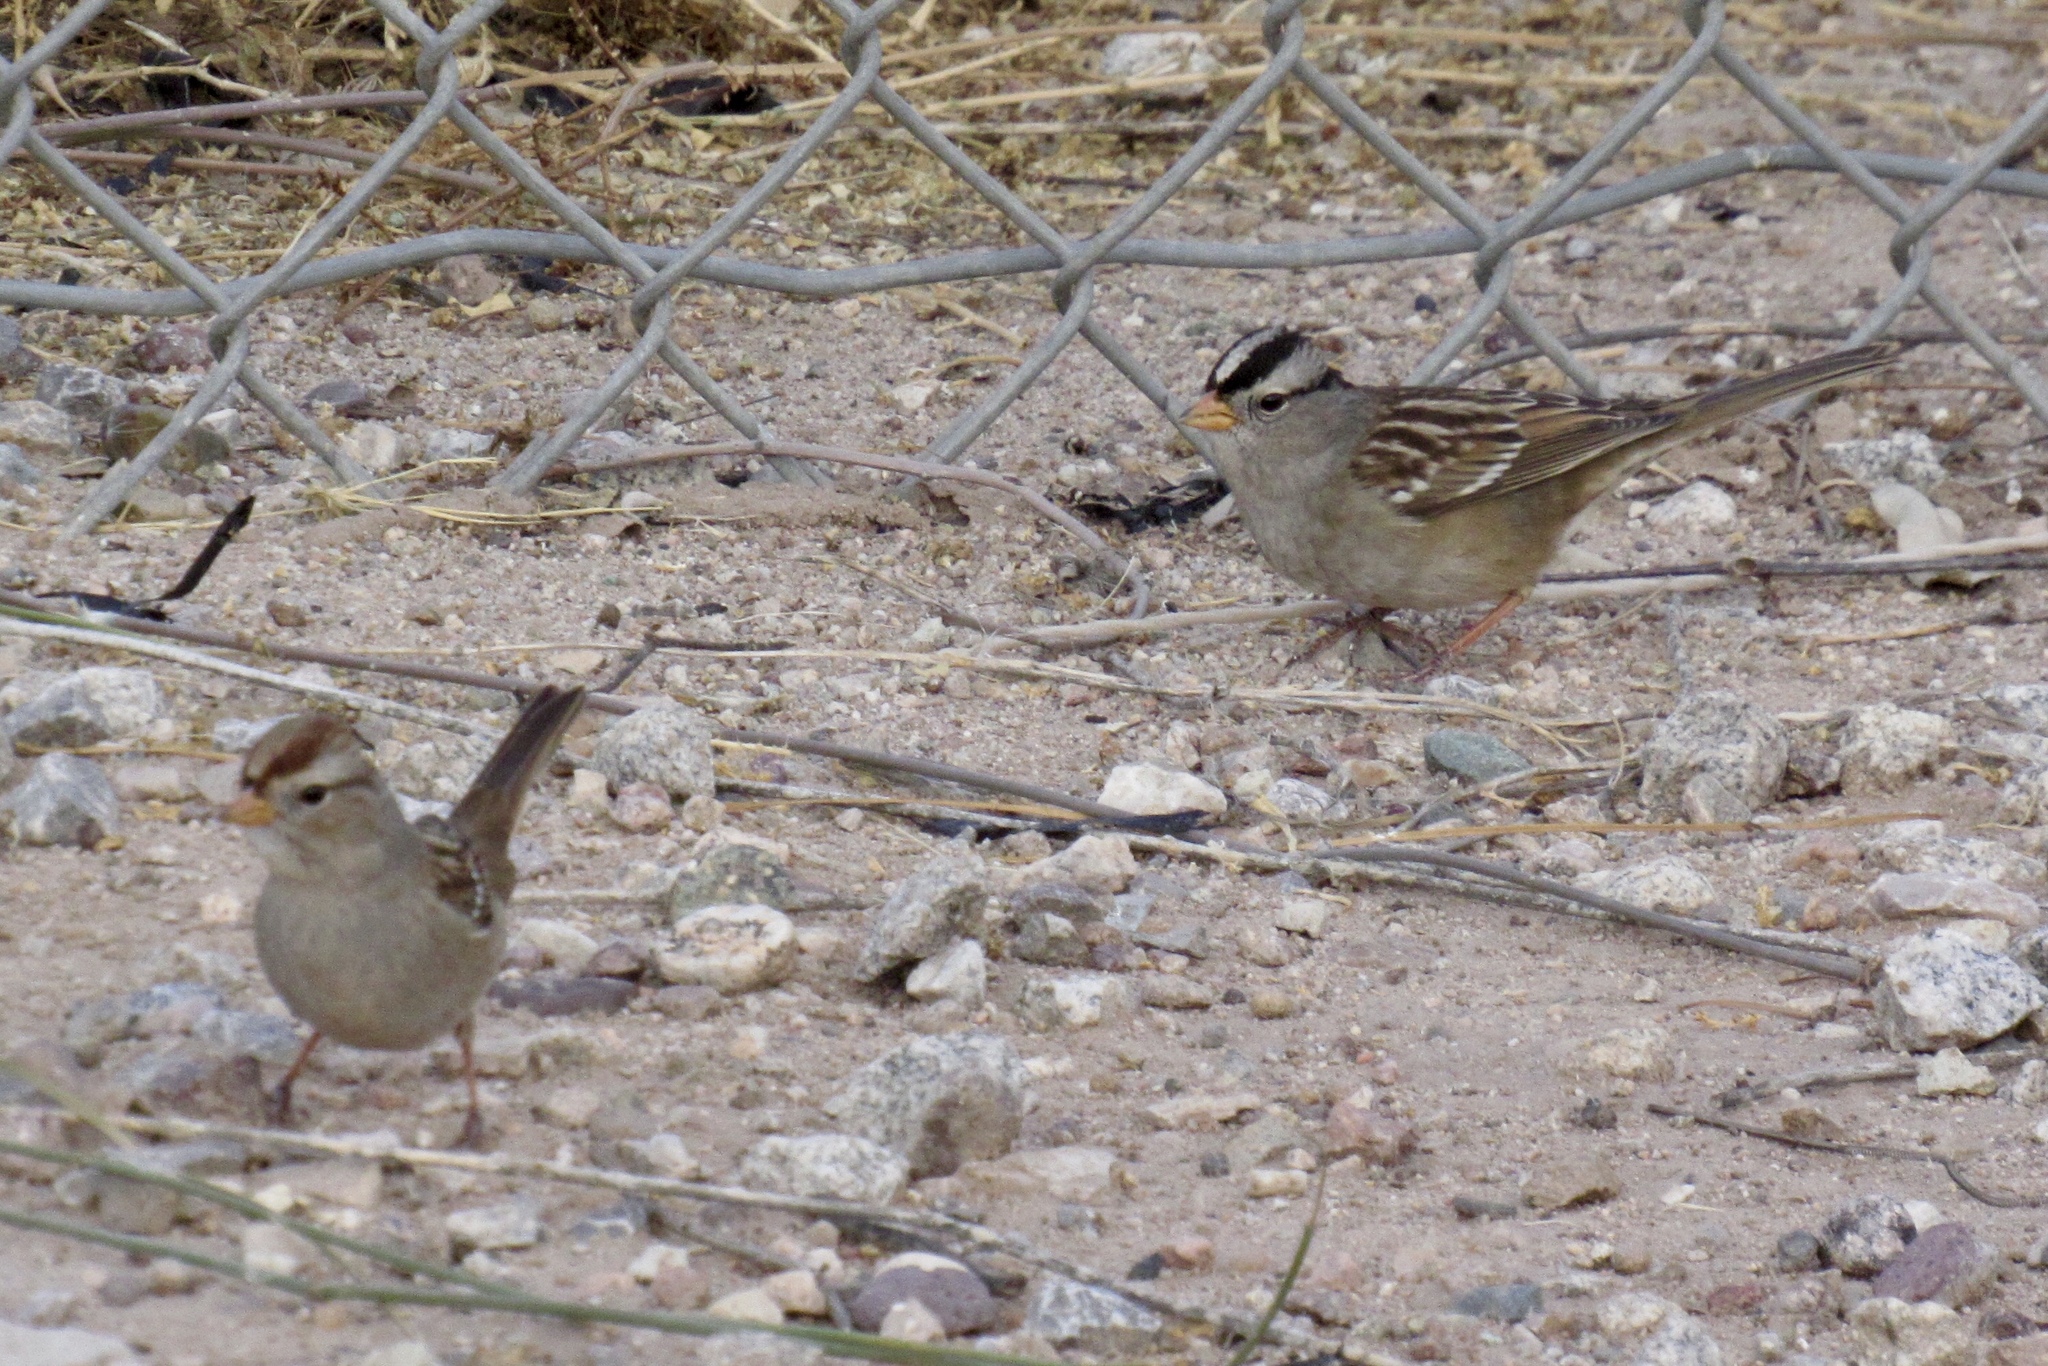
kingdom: Animalia
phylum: Chordata
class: Aves
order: Passeriformes
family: Passerellidae
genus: Zonotrichia
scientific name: Zonotrichia leucophrys
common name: White-crowned sparrow
